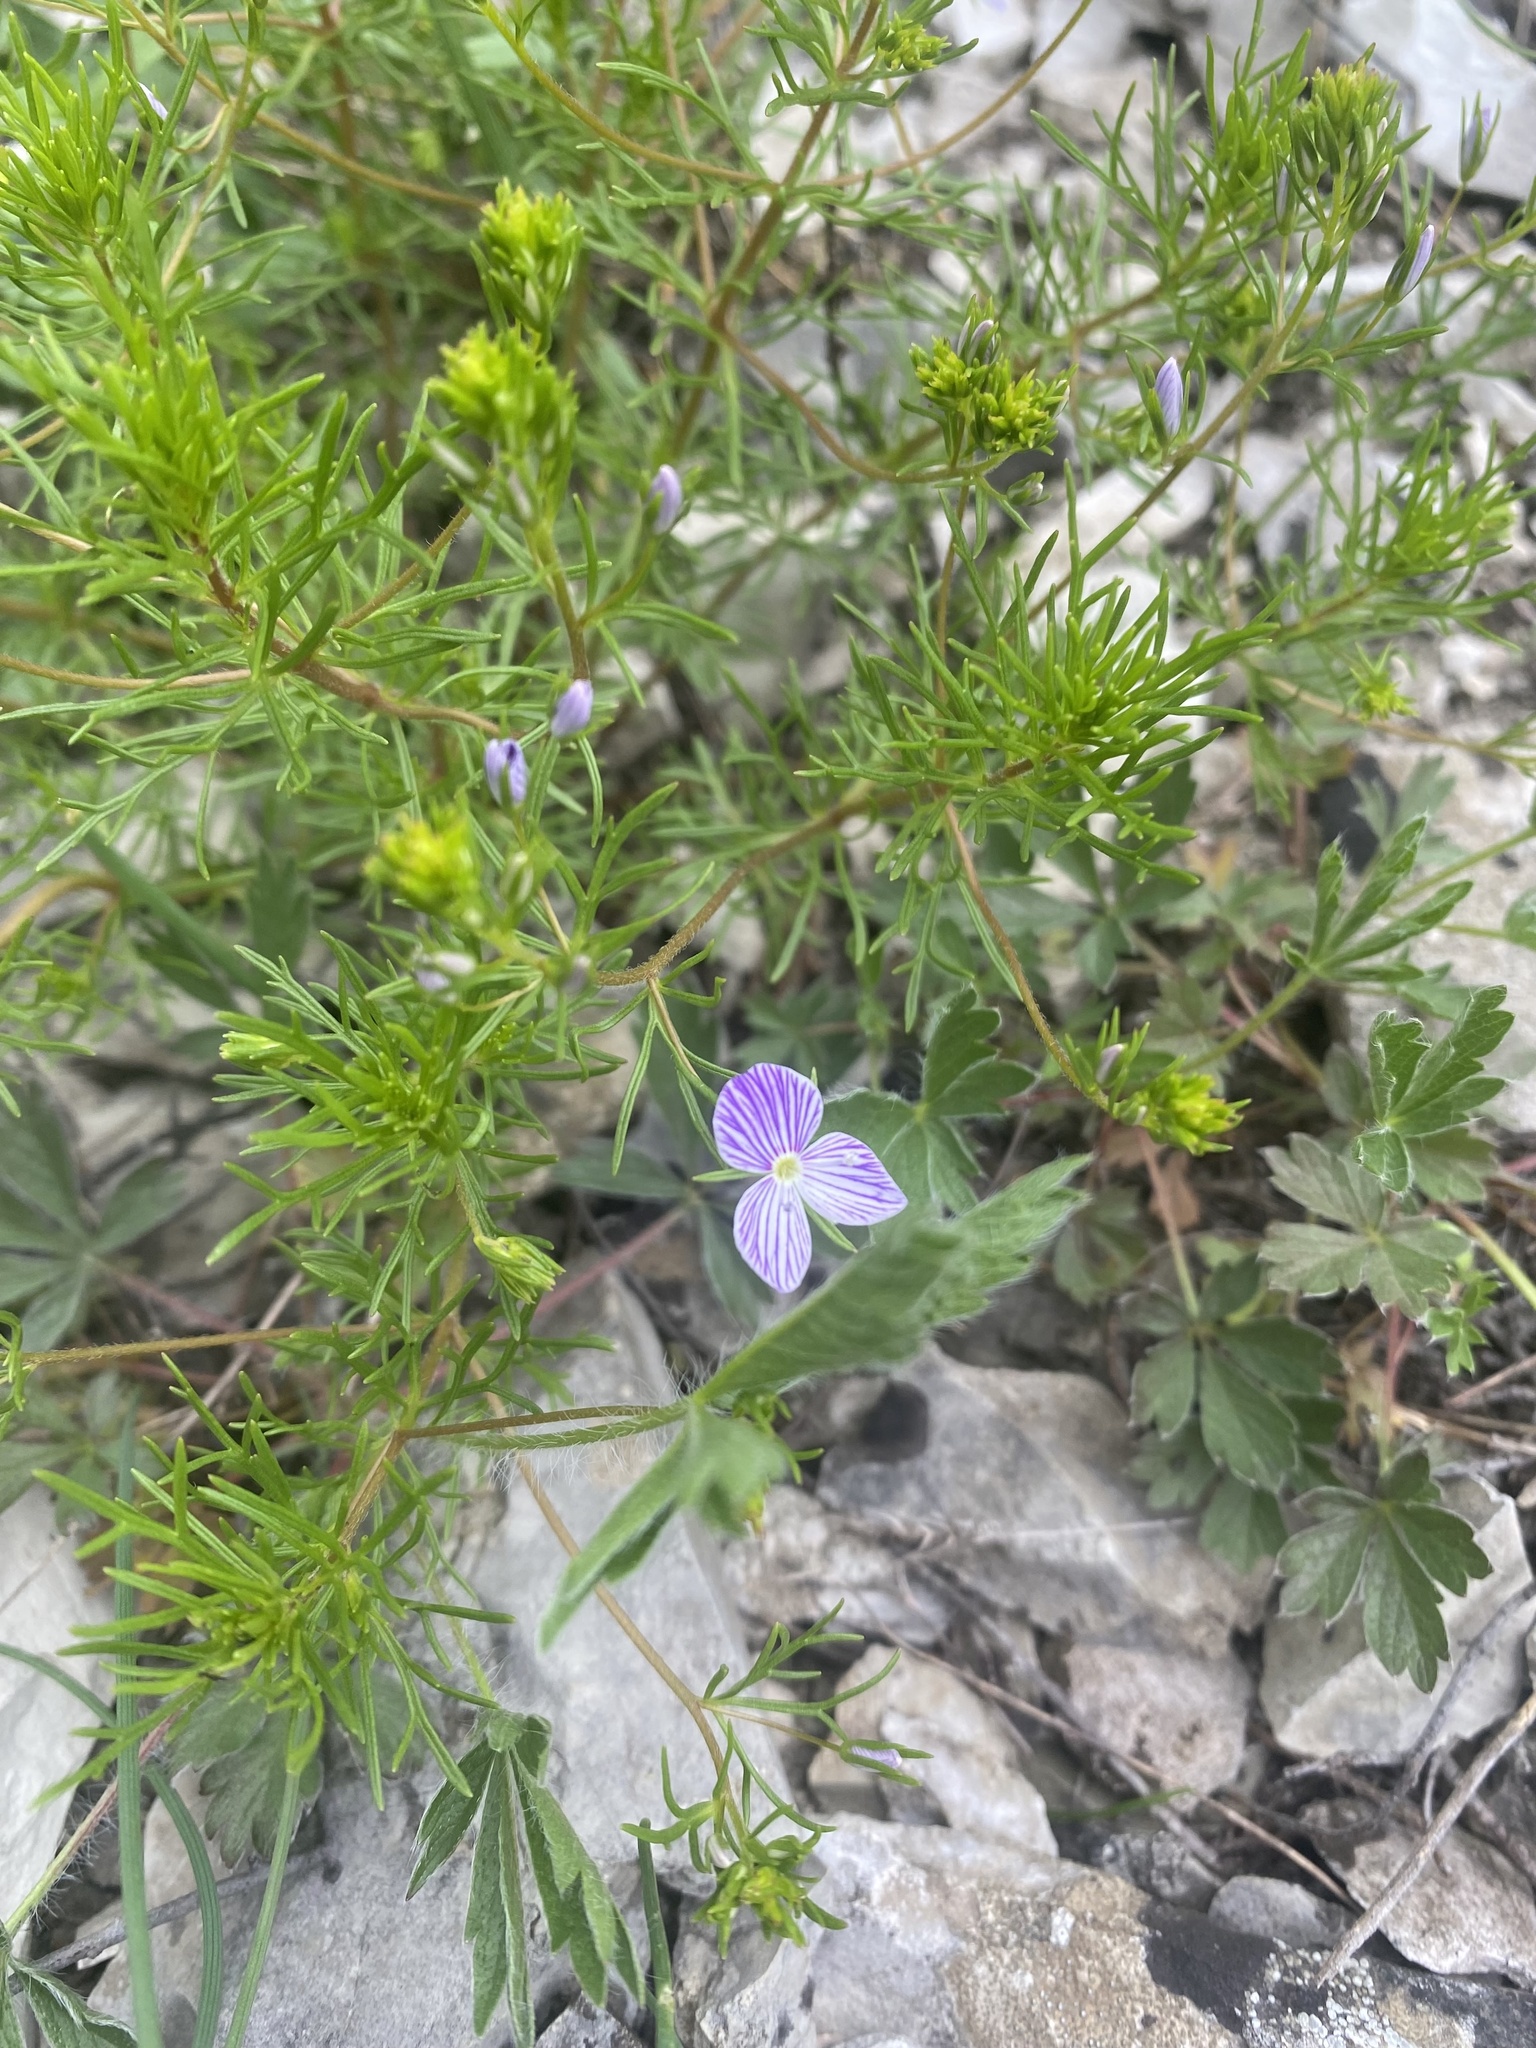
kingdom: Plantae
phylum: Tracheophyta
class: Magnoliopsida
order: Lamiales
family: Plantaginaceae
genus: Veronica
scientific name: Veronica filifolia
